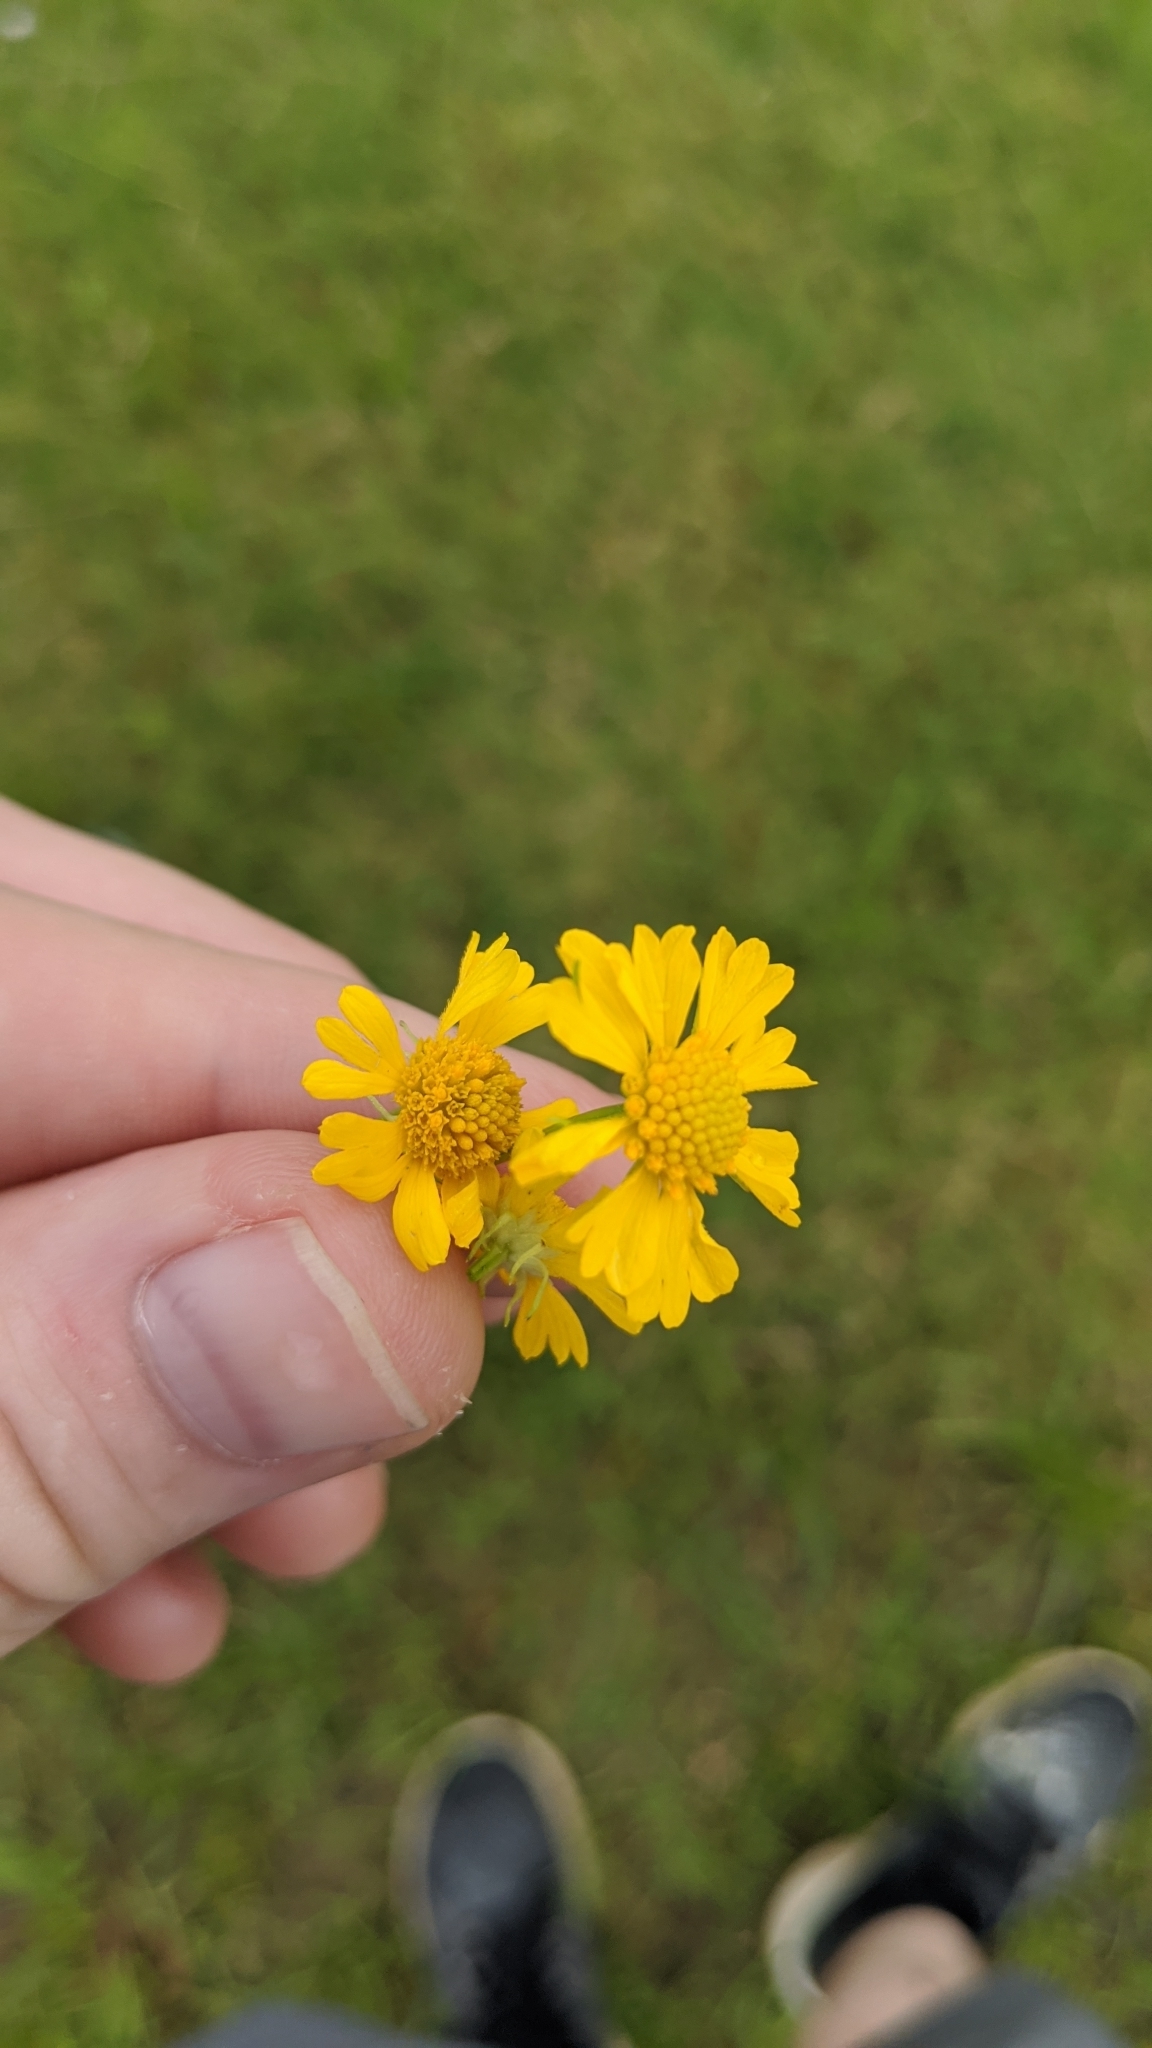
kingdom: Plantae
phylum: Tracheophyta
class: Magnoliopsida
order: Asterales
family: Asteraceae
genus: Helenium
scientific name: Helenium amarum
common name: Bitter sneezeweed
